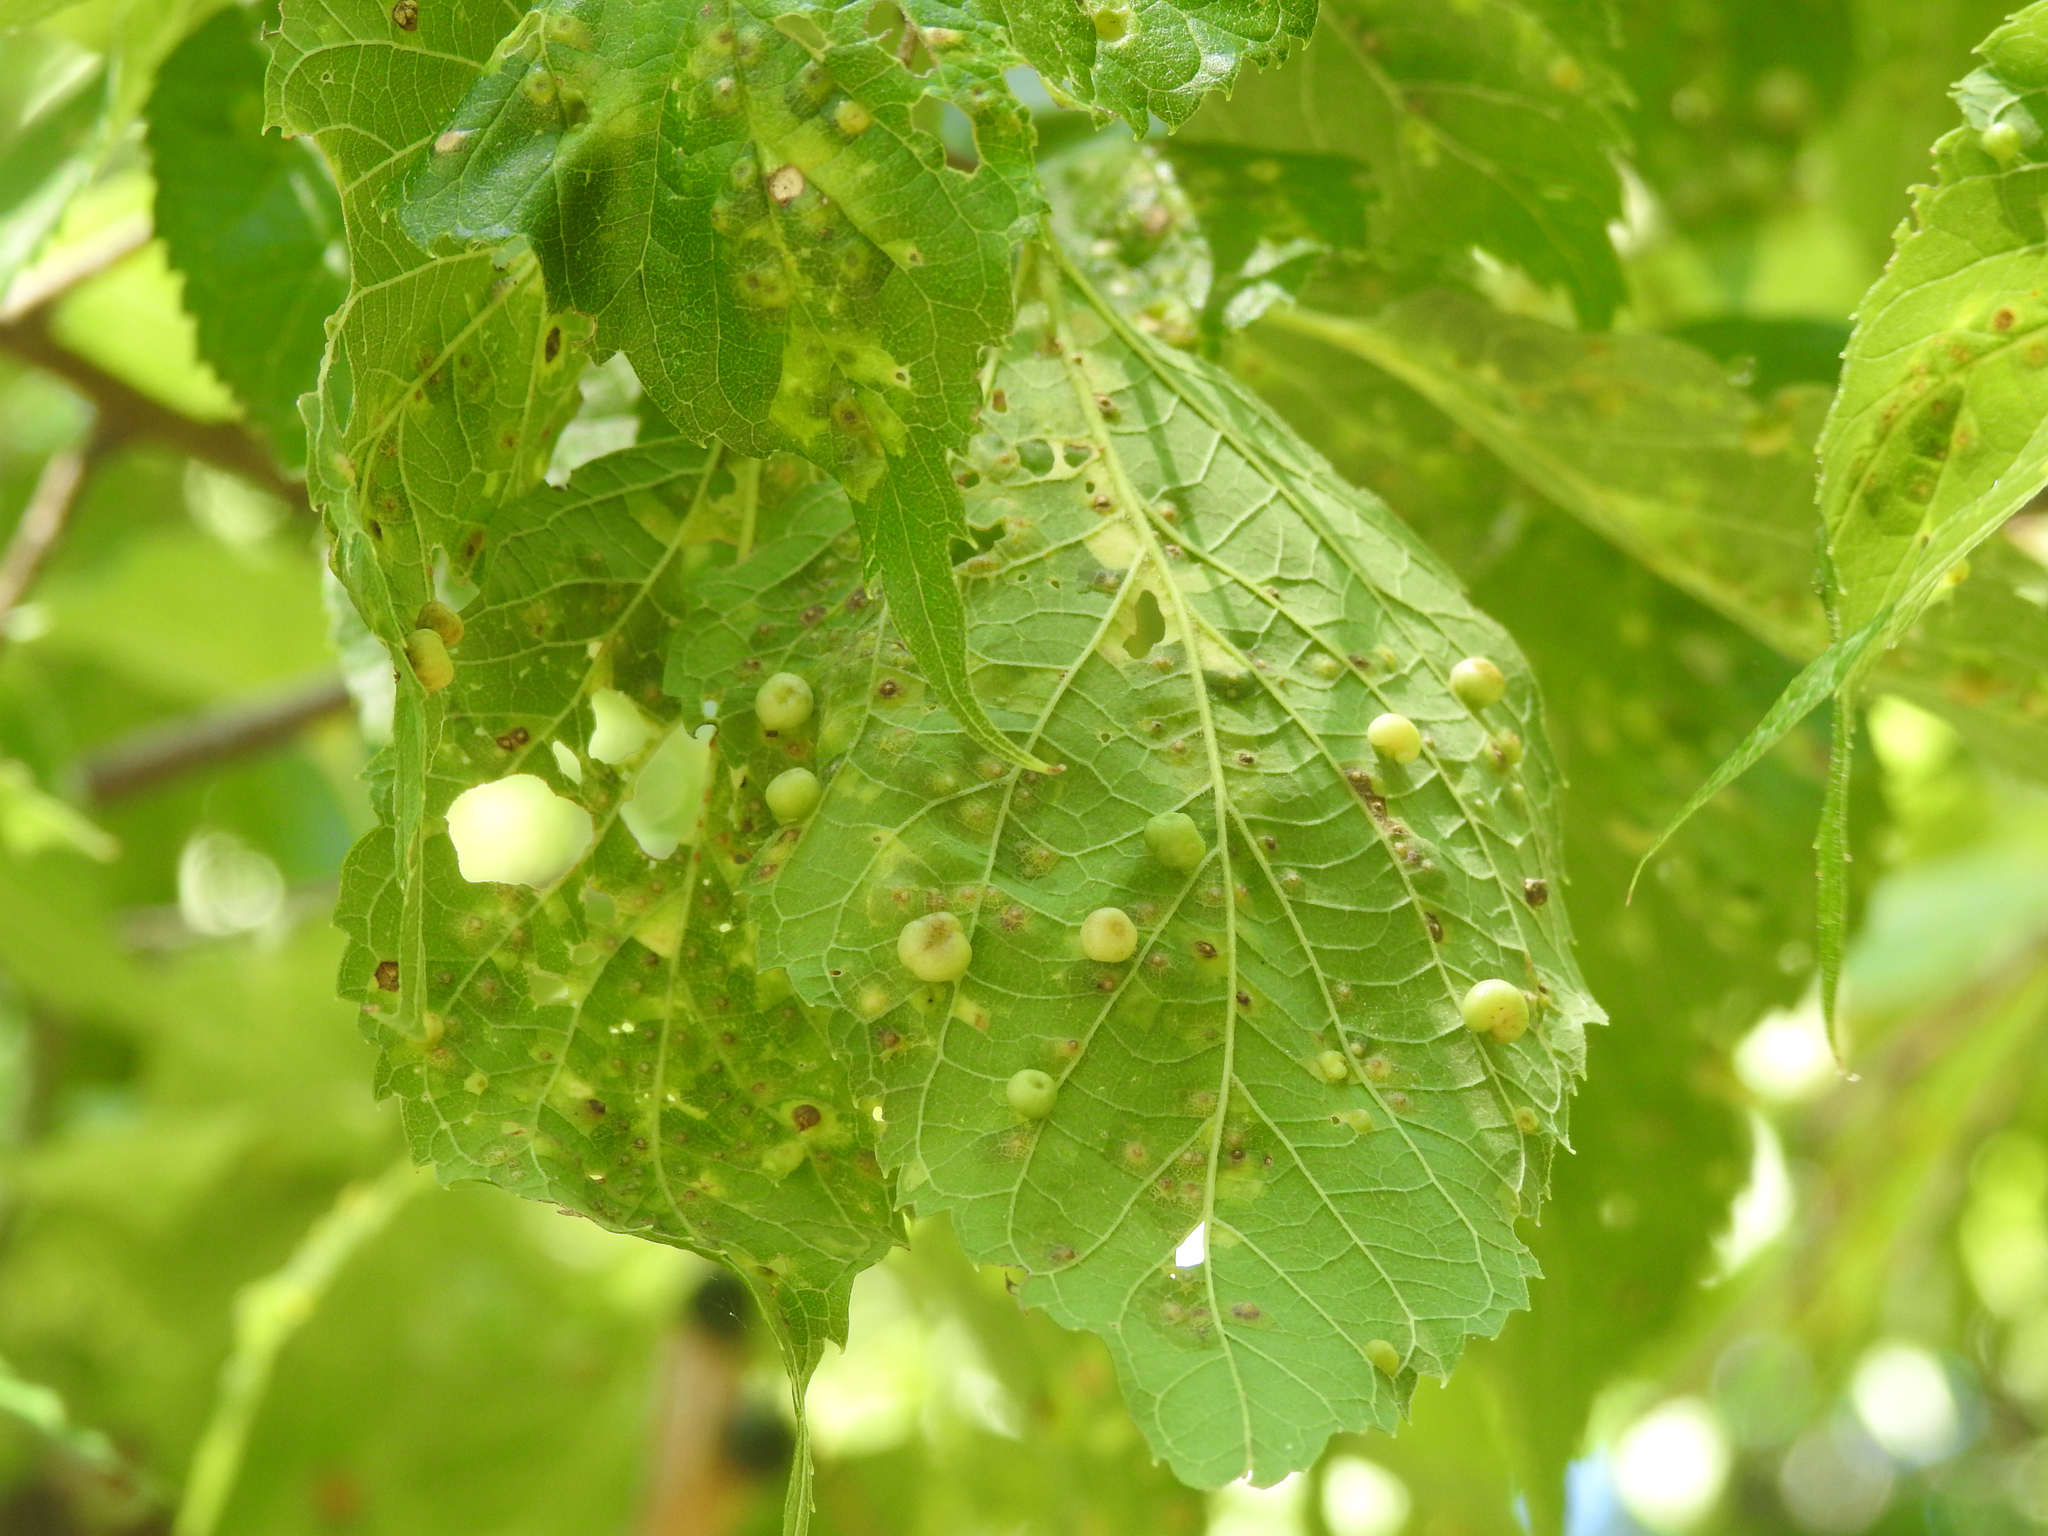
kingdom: Animalia
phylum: Arthropoda
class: Insecta
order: Hemiptera
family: Aphalaridae
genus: Pachypsylla
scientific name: Pachypsylla celtidismamma
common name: Hackberry nipplegall psyllid
